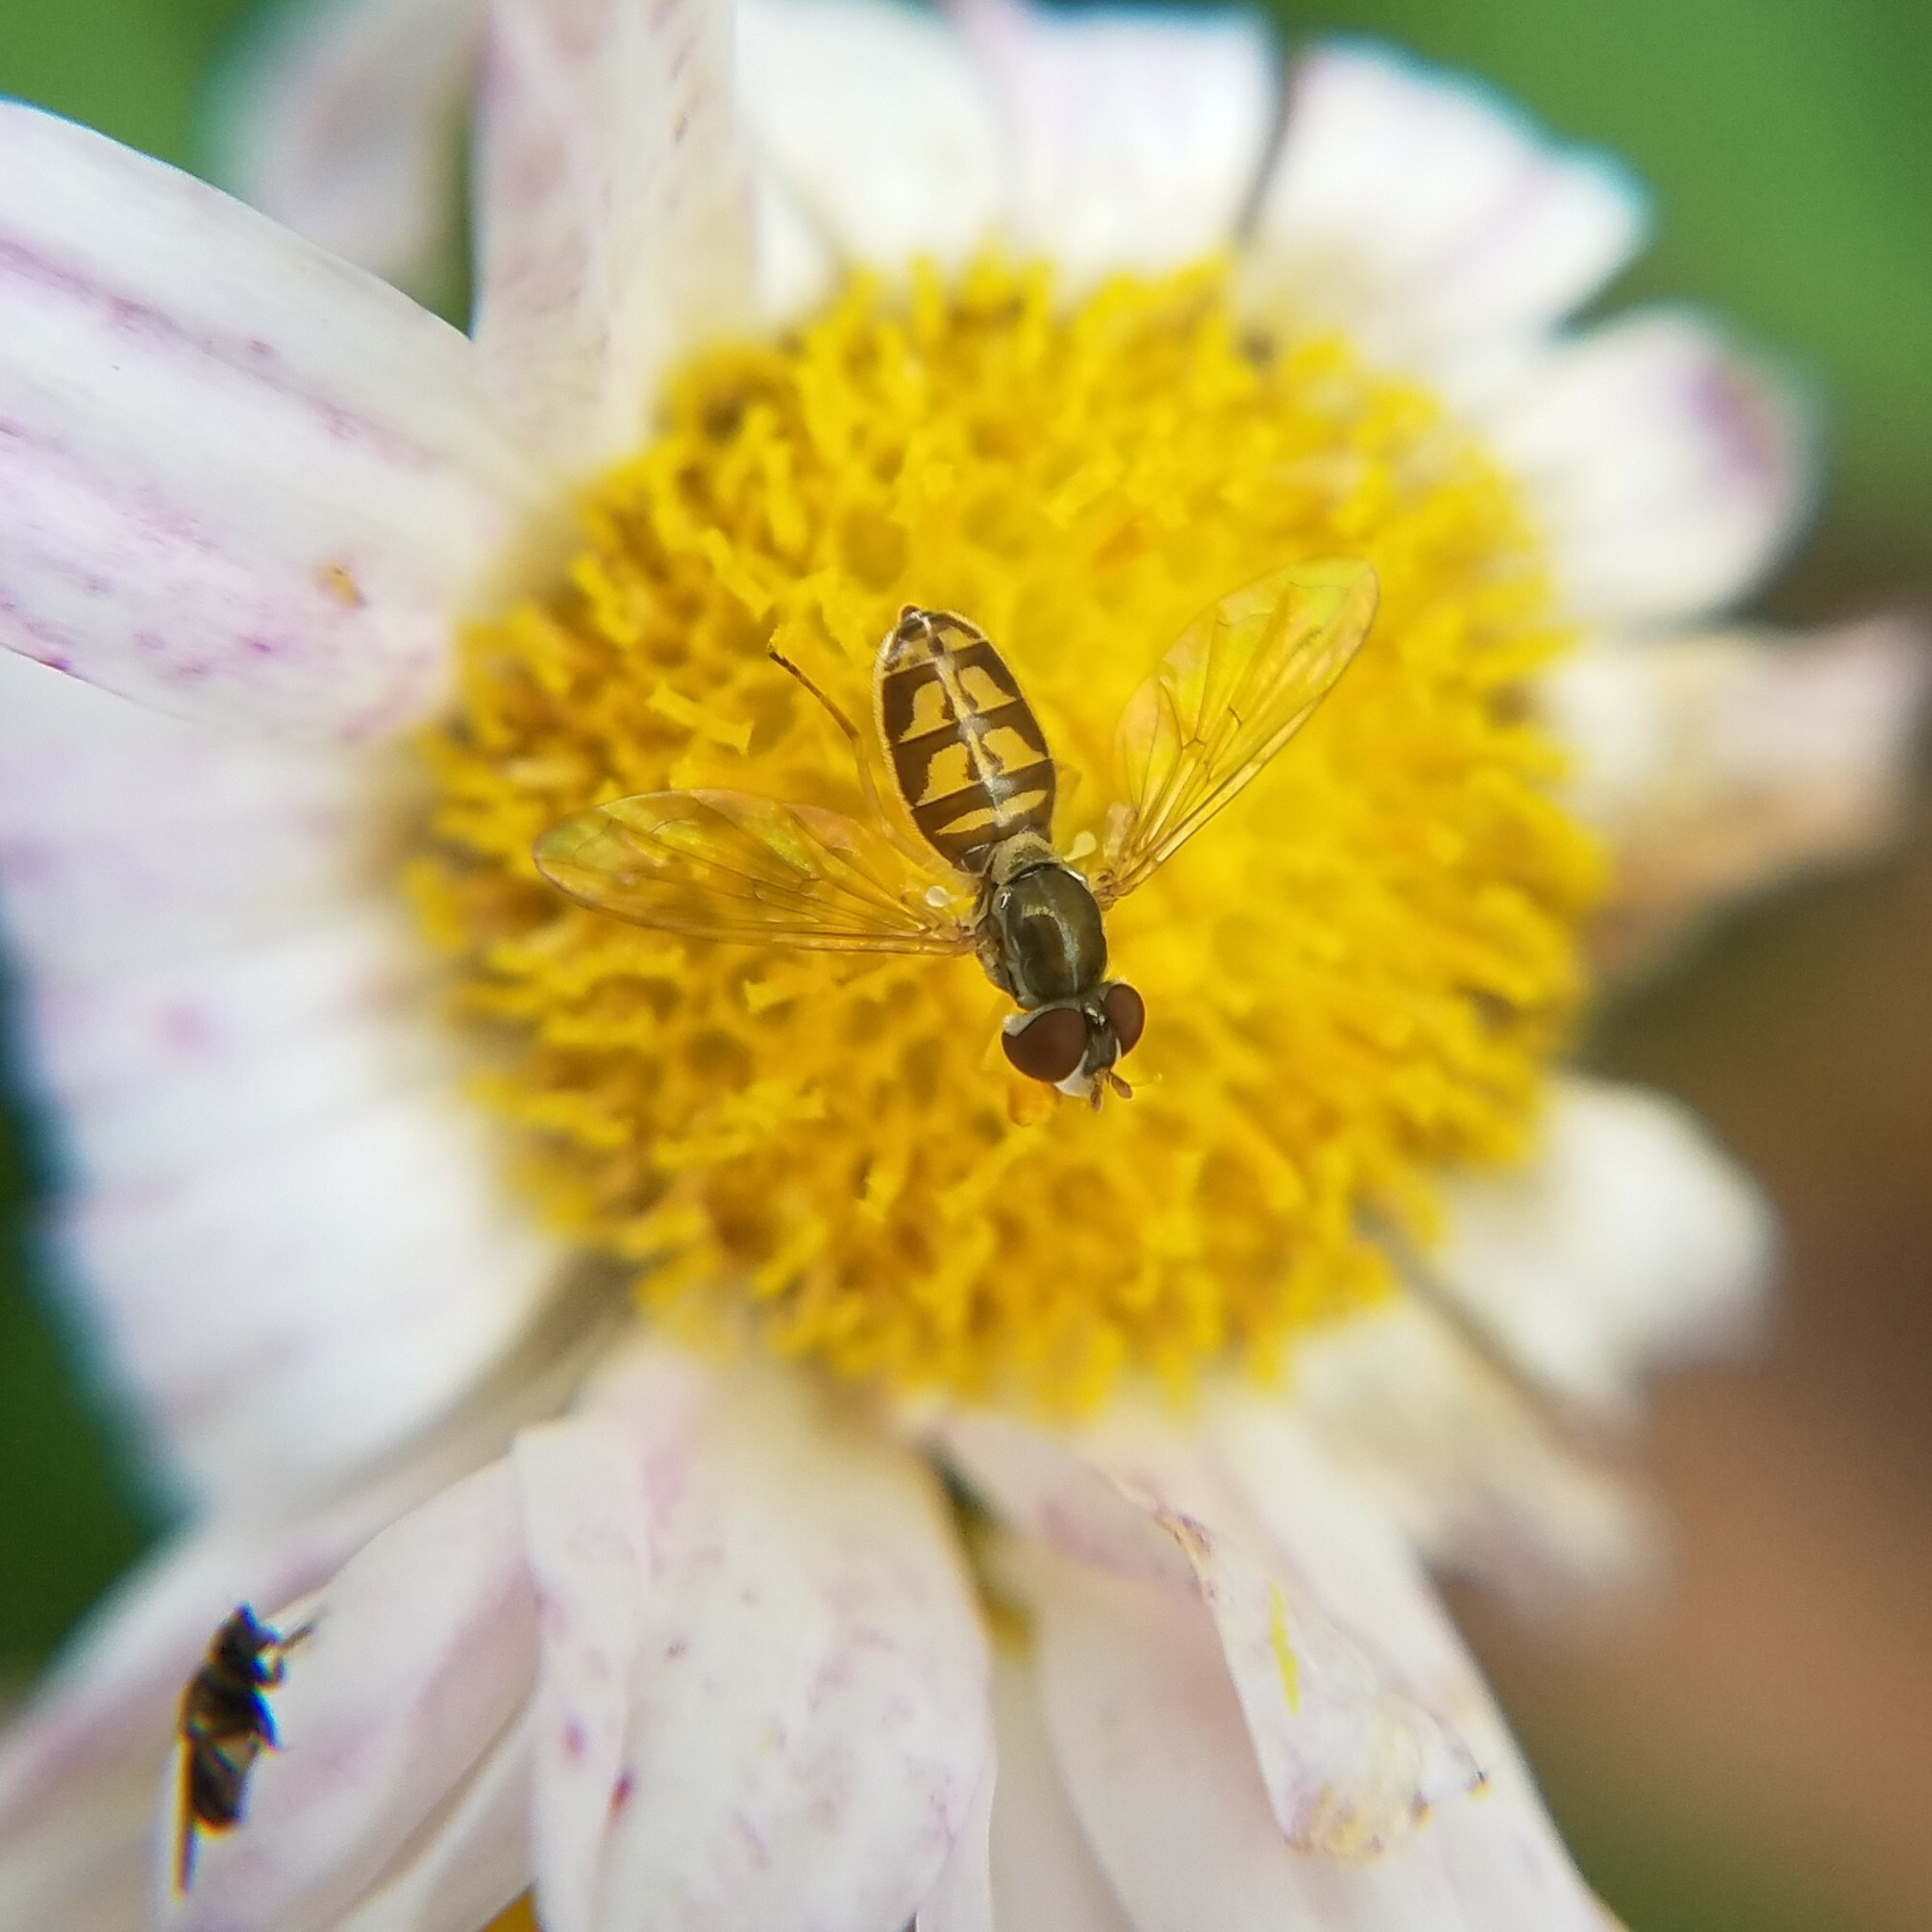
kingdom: Animalia
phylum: Arthropoda
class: Insecta
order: Diptera
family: Syrphidae
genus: Toxomerus
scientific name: Toxomerus marginatus
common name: Syrphid fly
